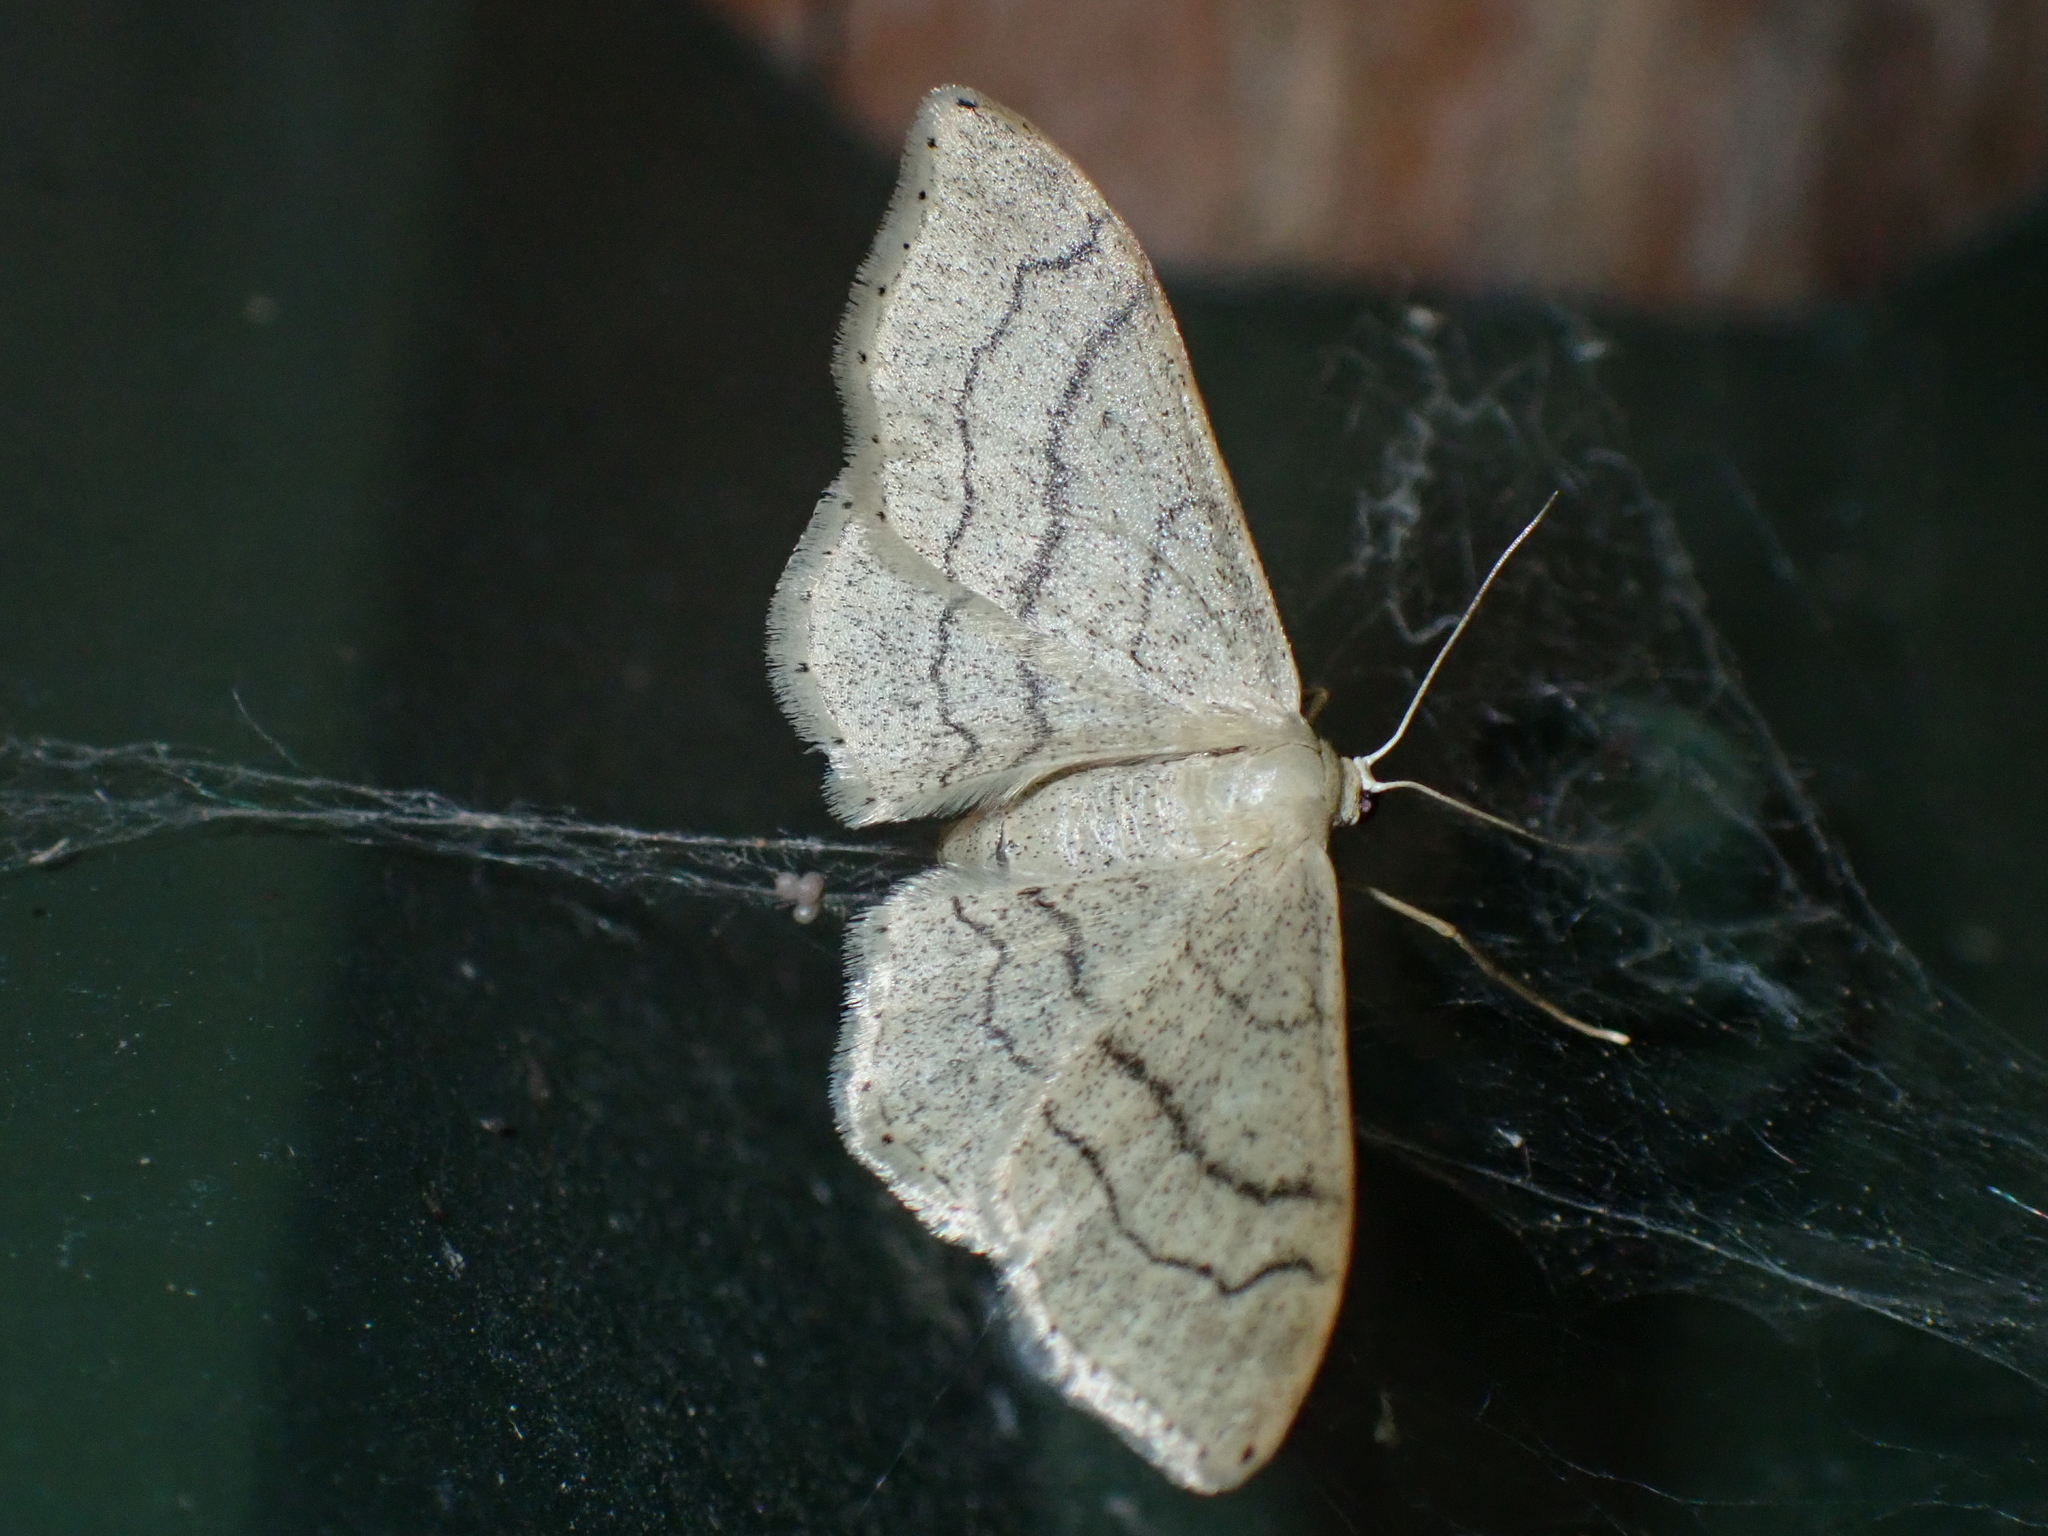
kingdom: Animalia
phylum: Arthropoda
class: Insecta
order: Lepidoptera
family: Geometridae
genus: Idaea
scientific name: Idaea aversata
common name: Riband wave
